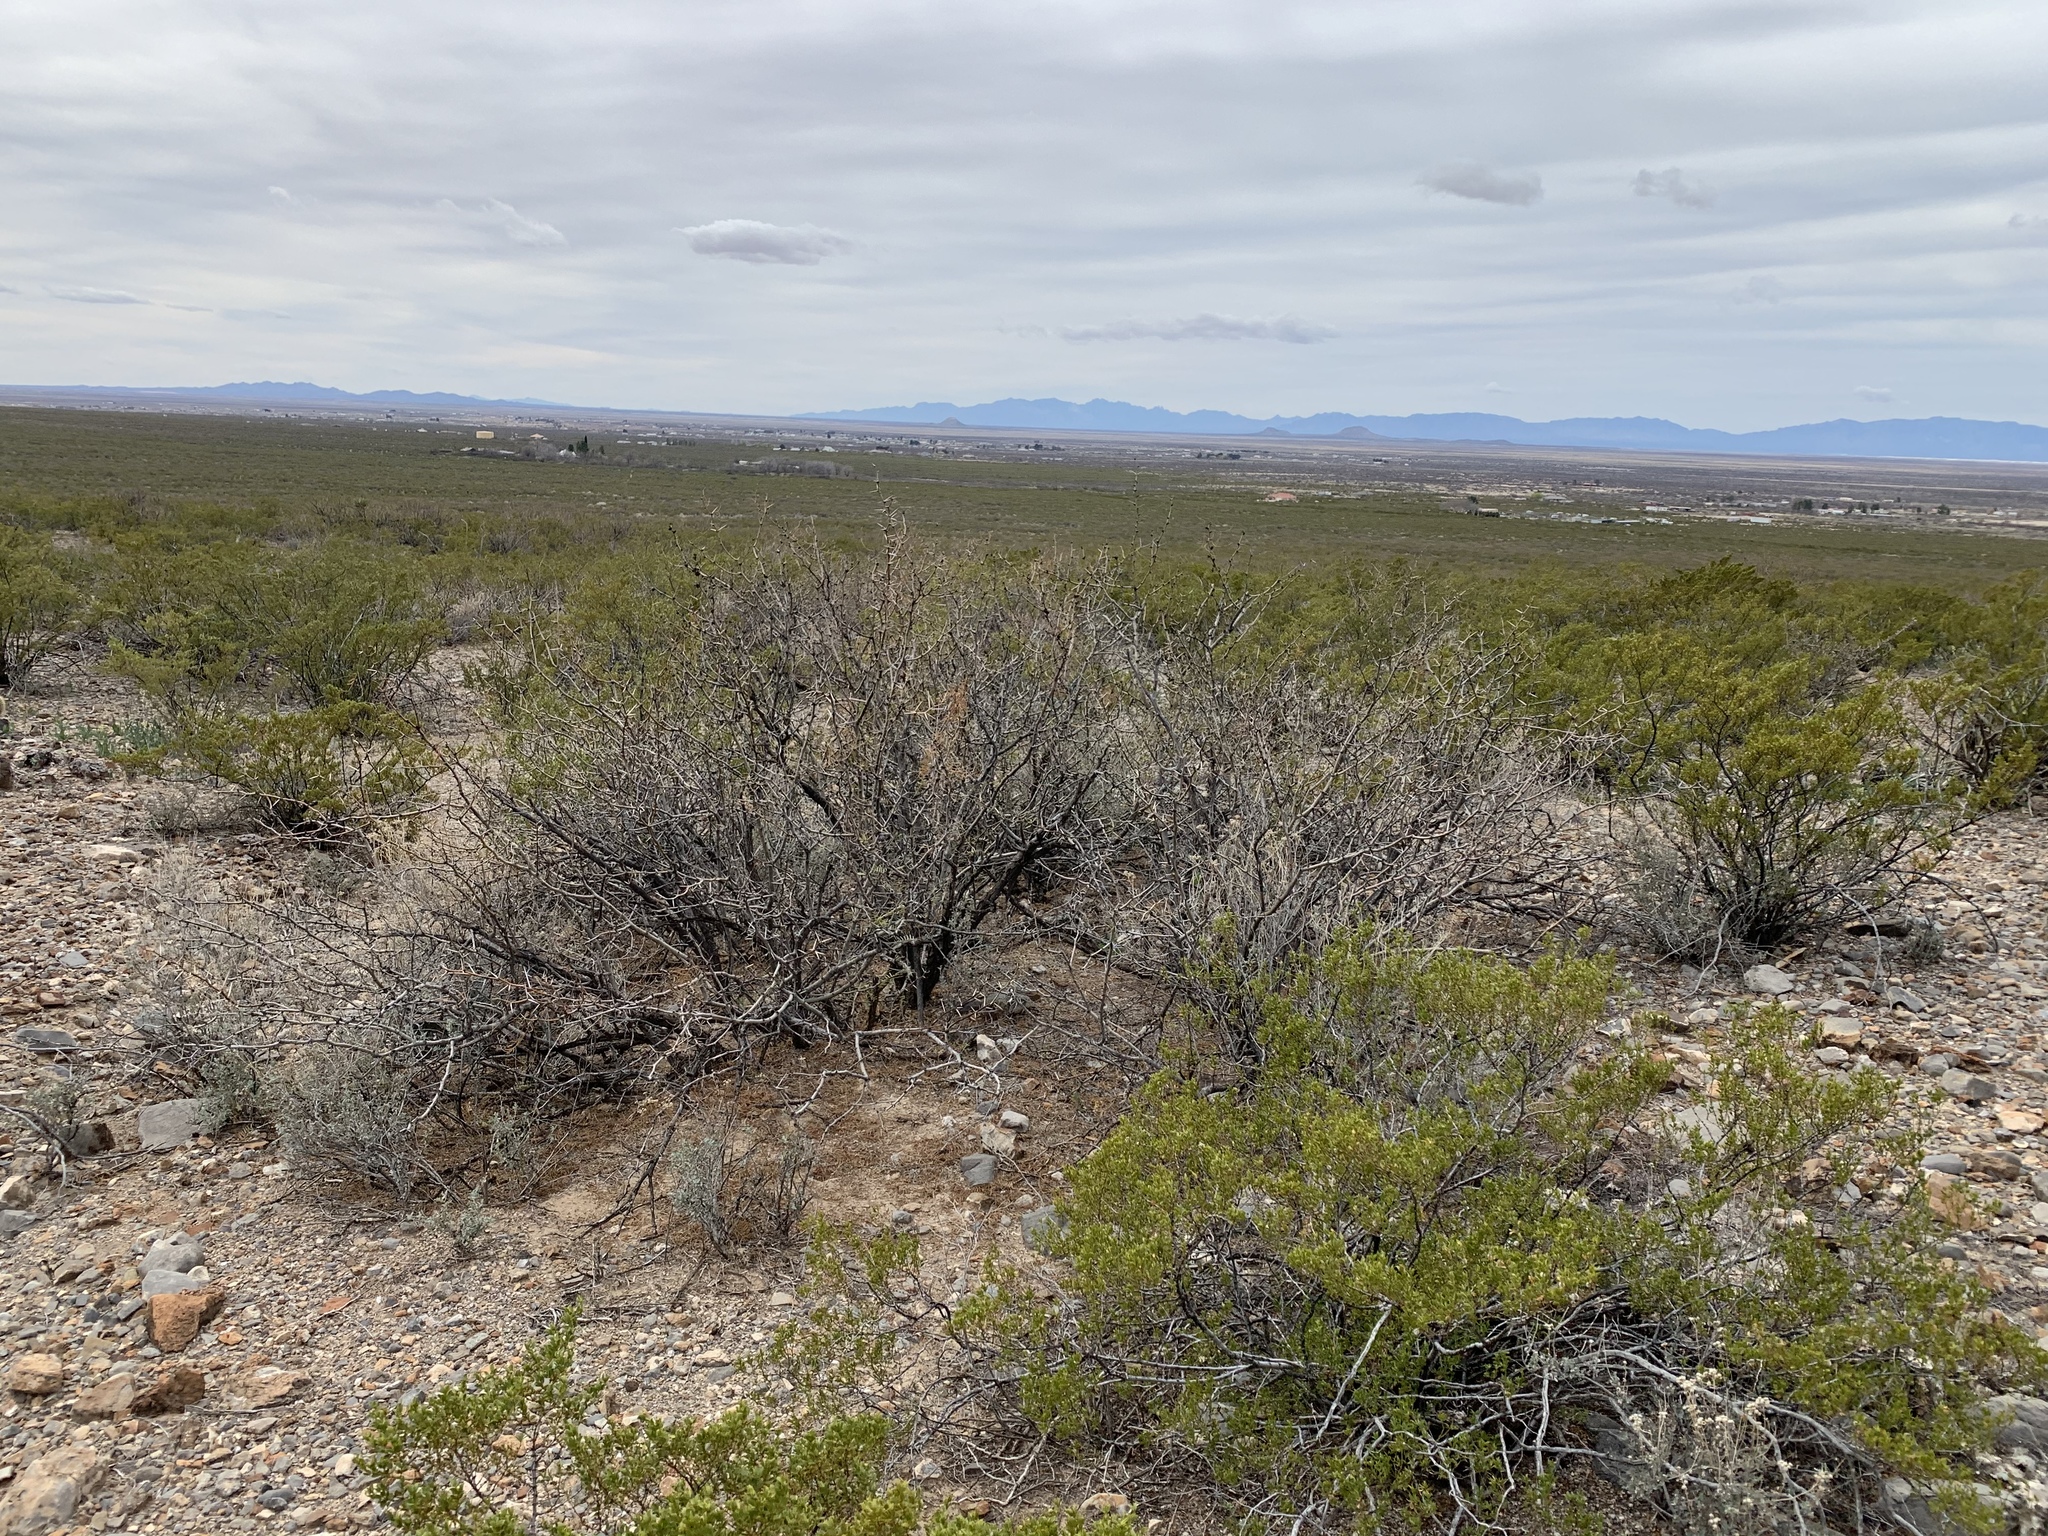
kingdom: Plantae
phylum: Tracheophyta
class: Magnoliopsida
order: Fabales
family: Fabaceae
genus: Prosopis
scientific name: Prosopis glandulosa
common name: Honey mesquite
